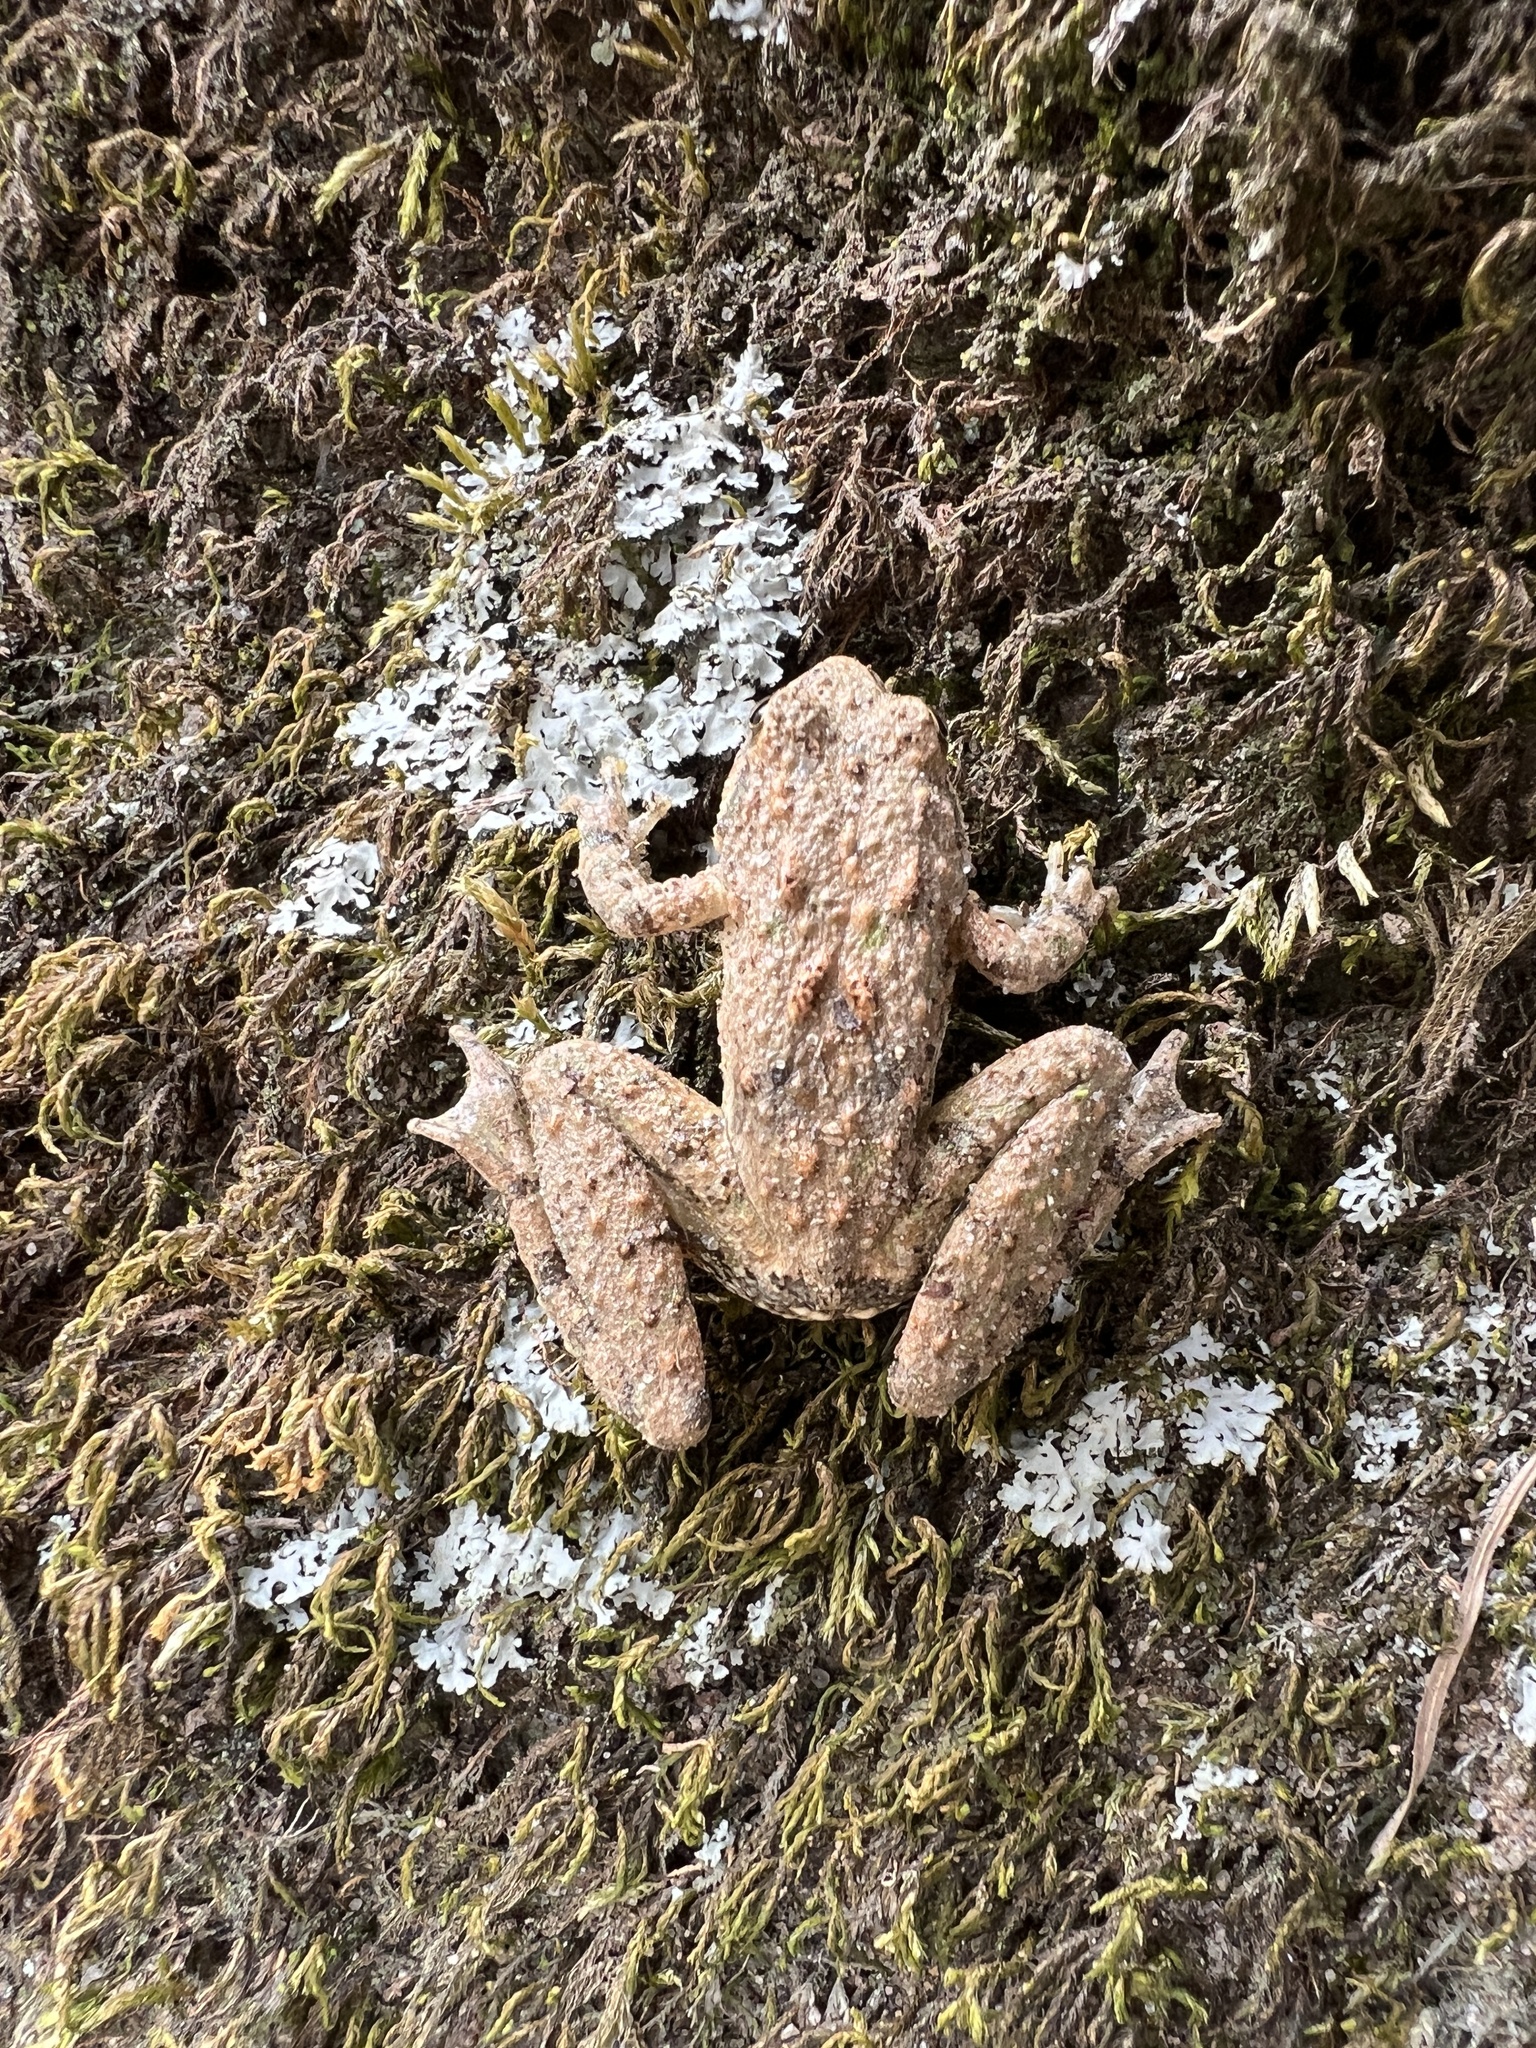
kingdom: Animalia
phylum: Chordata
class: Amphibia
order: Anura
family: Hylidae
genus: Acris
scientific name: Acris blanchardi
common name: Blanchard's cricket frog
